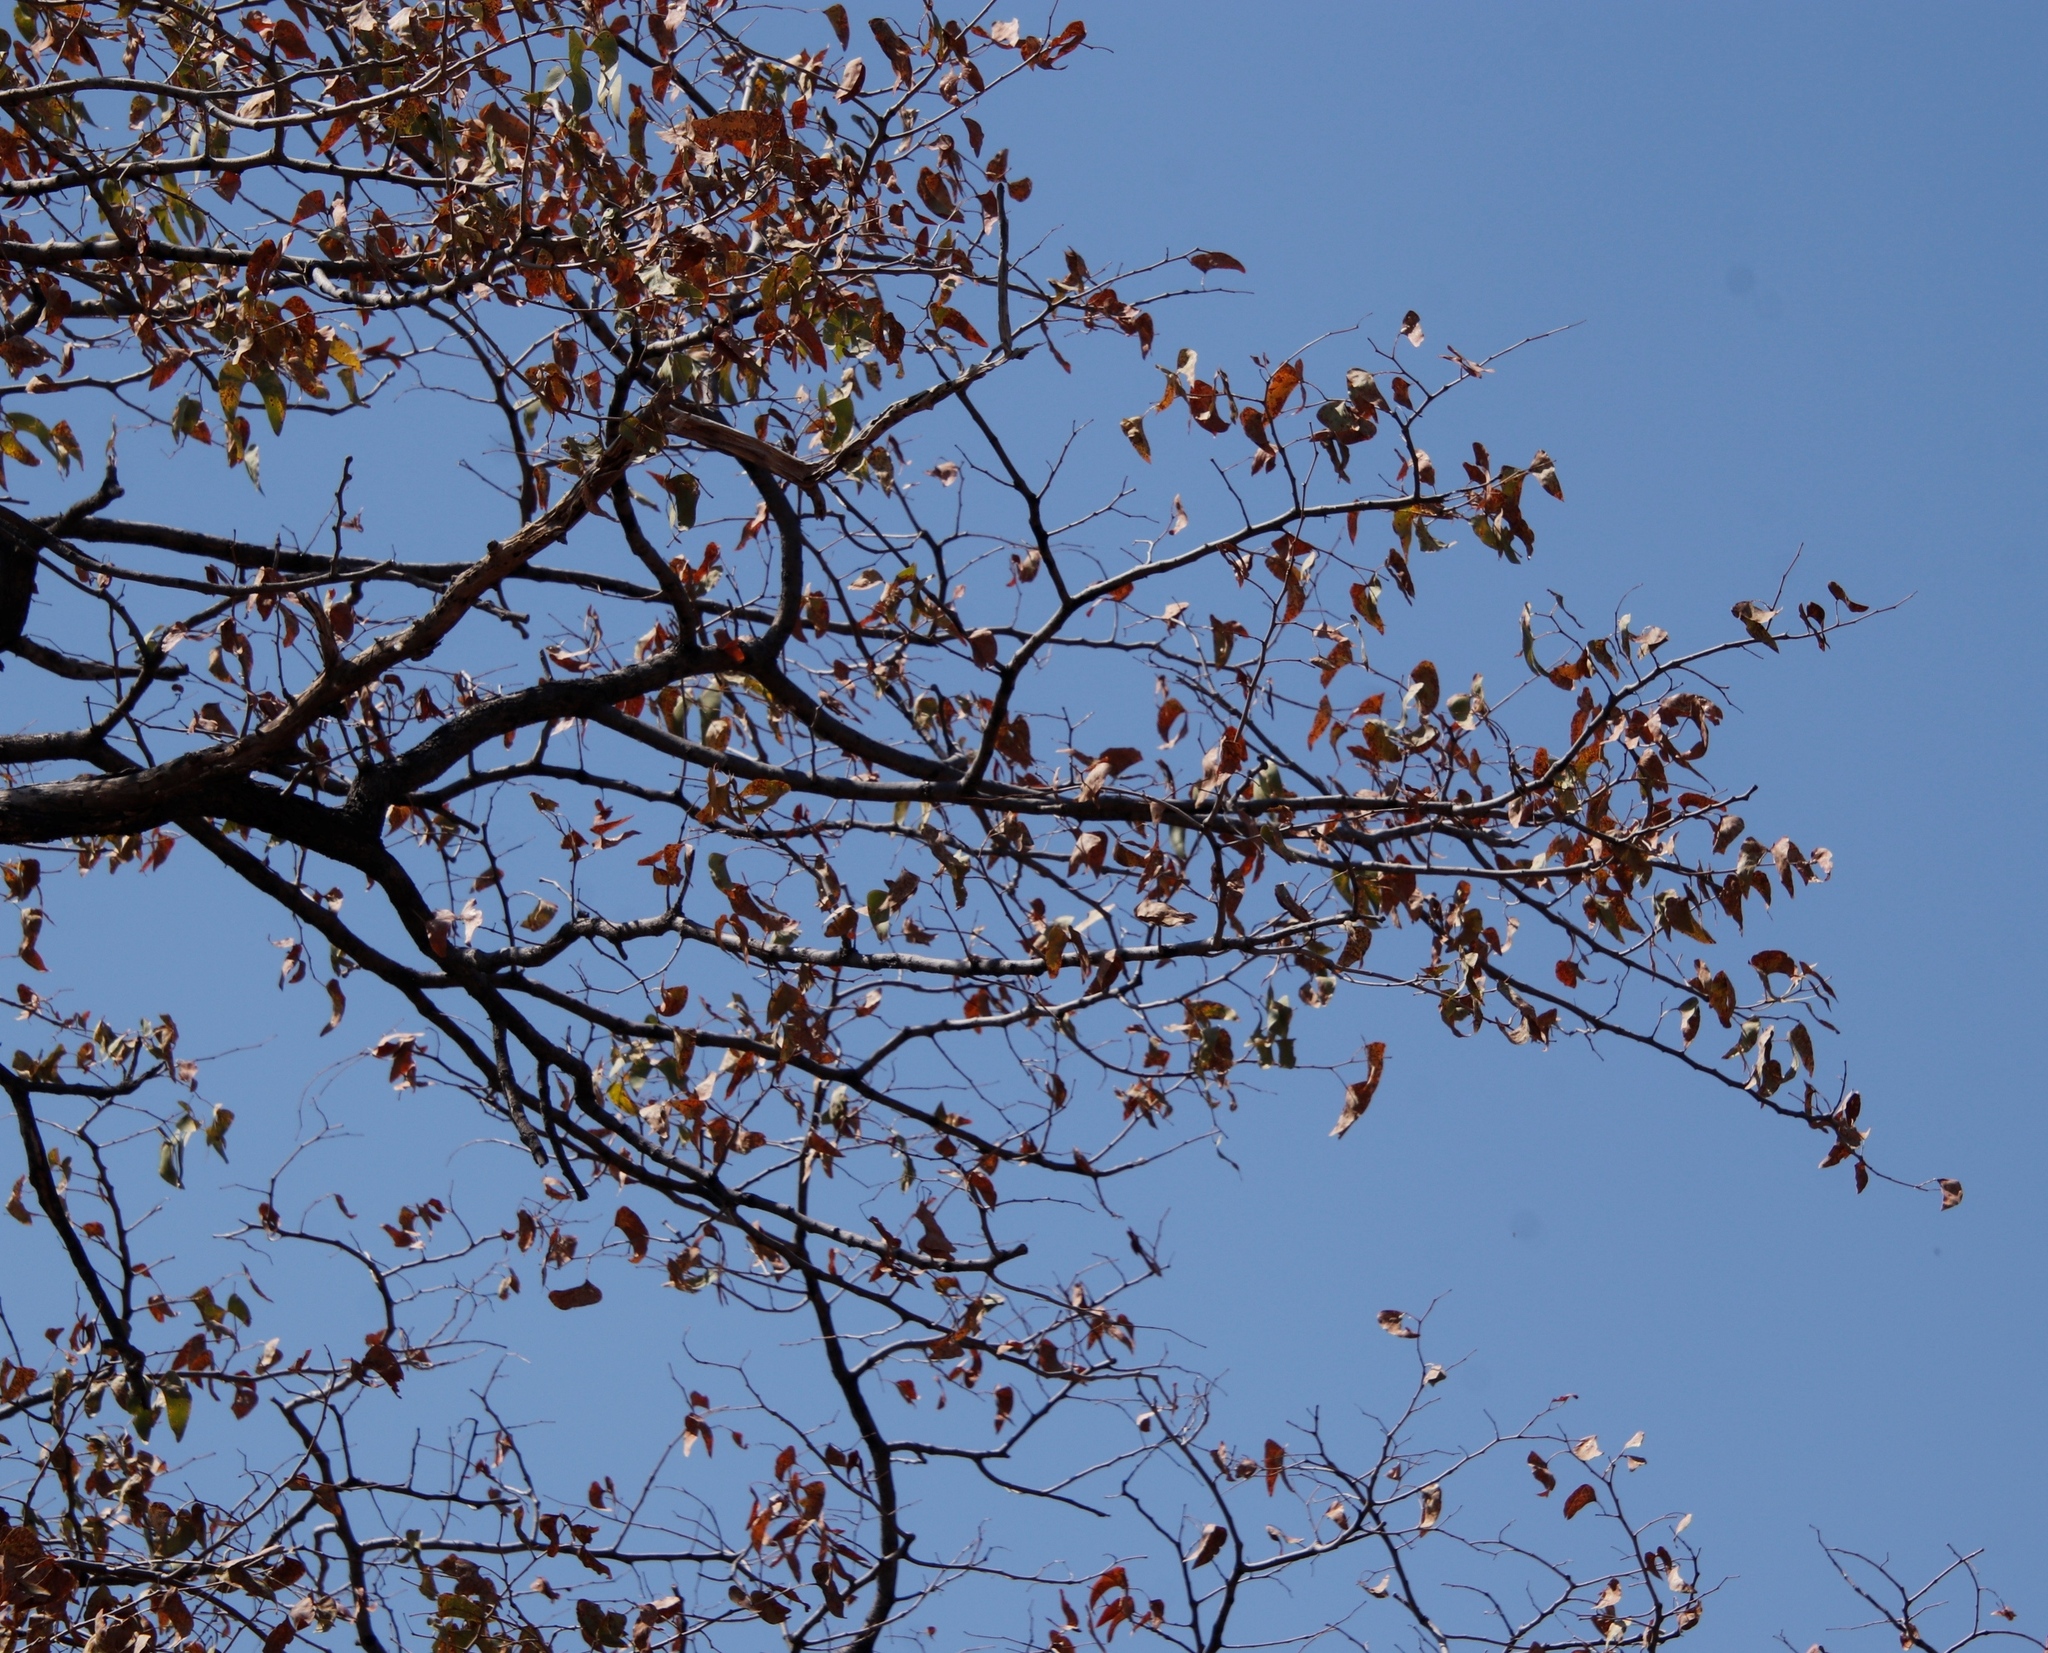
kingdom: Plantae
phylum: Tracheophyta
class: Magnoliopsida
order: Fabales
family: Fabaceae
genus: Colophospermum
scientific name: Colophospermum mopane
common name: Mopane
